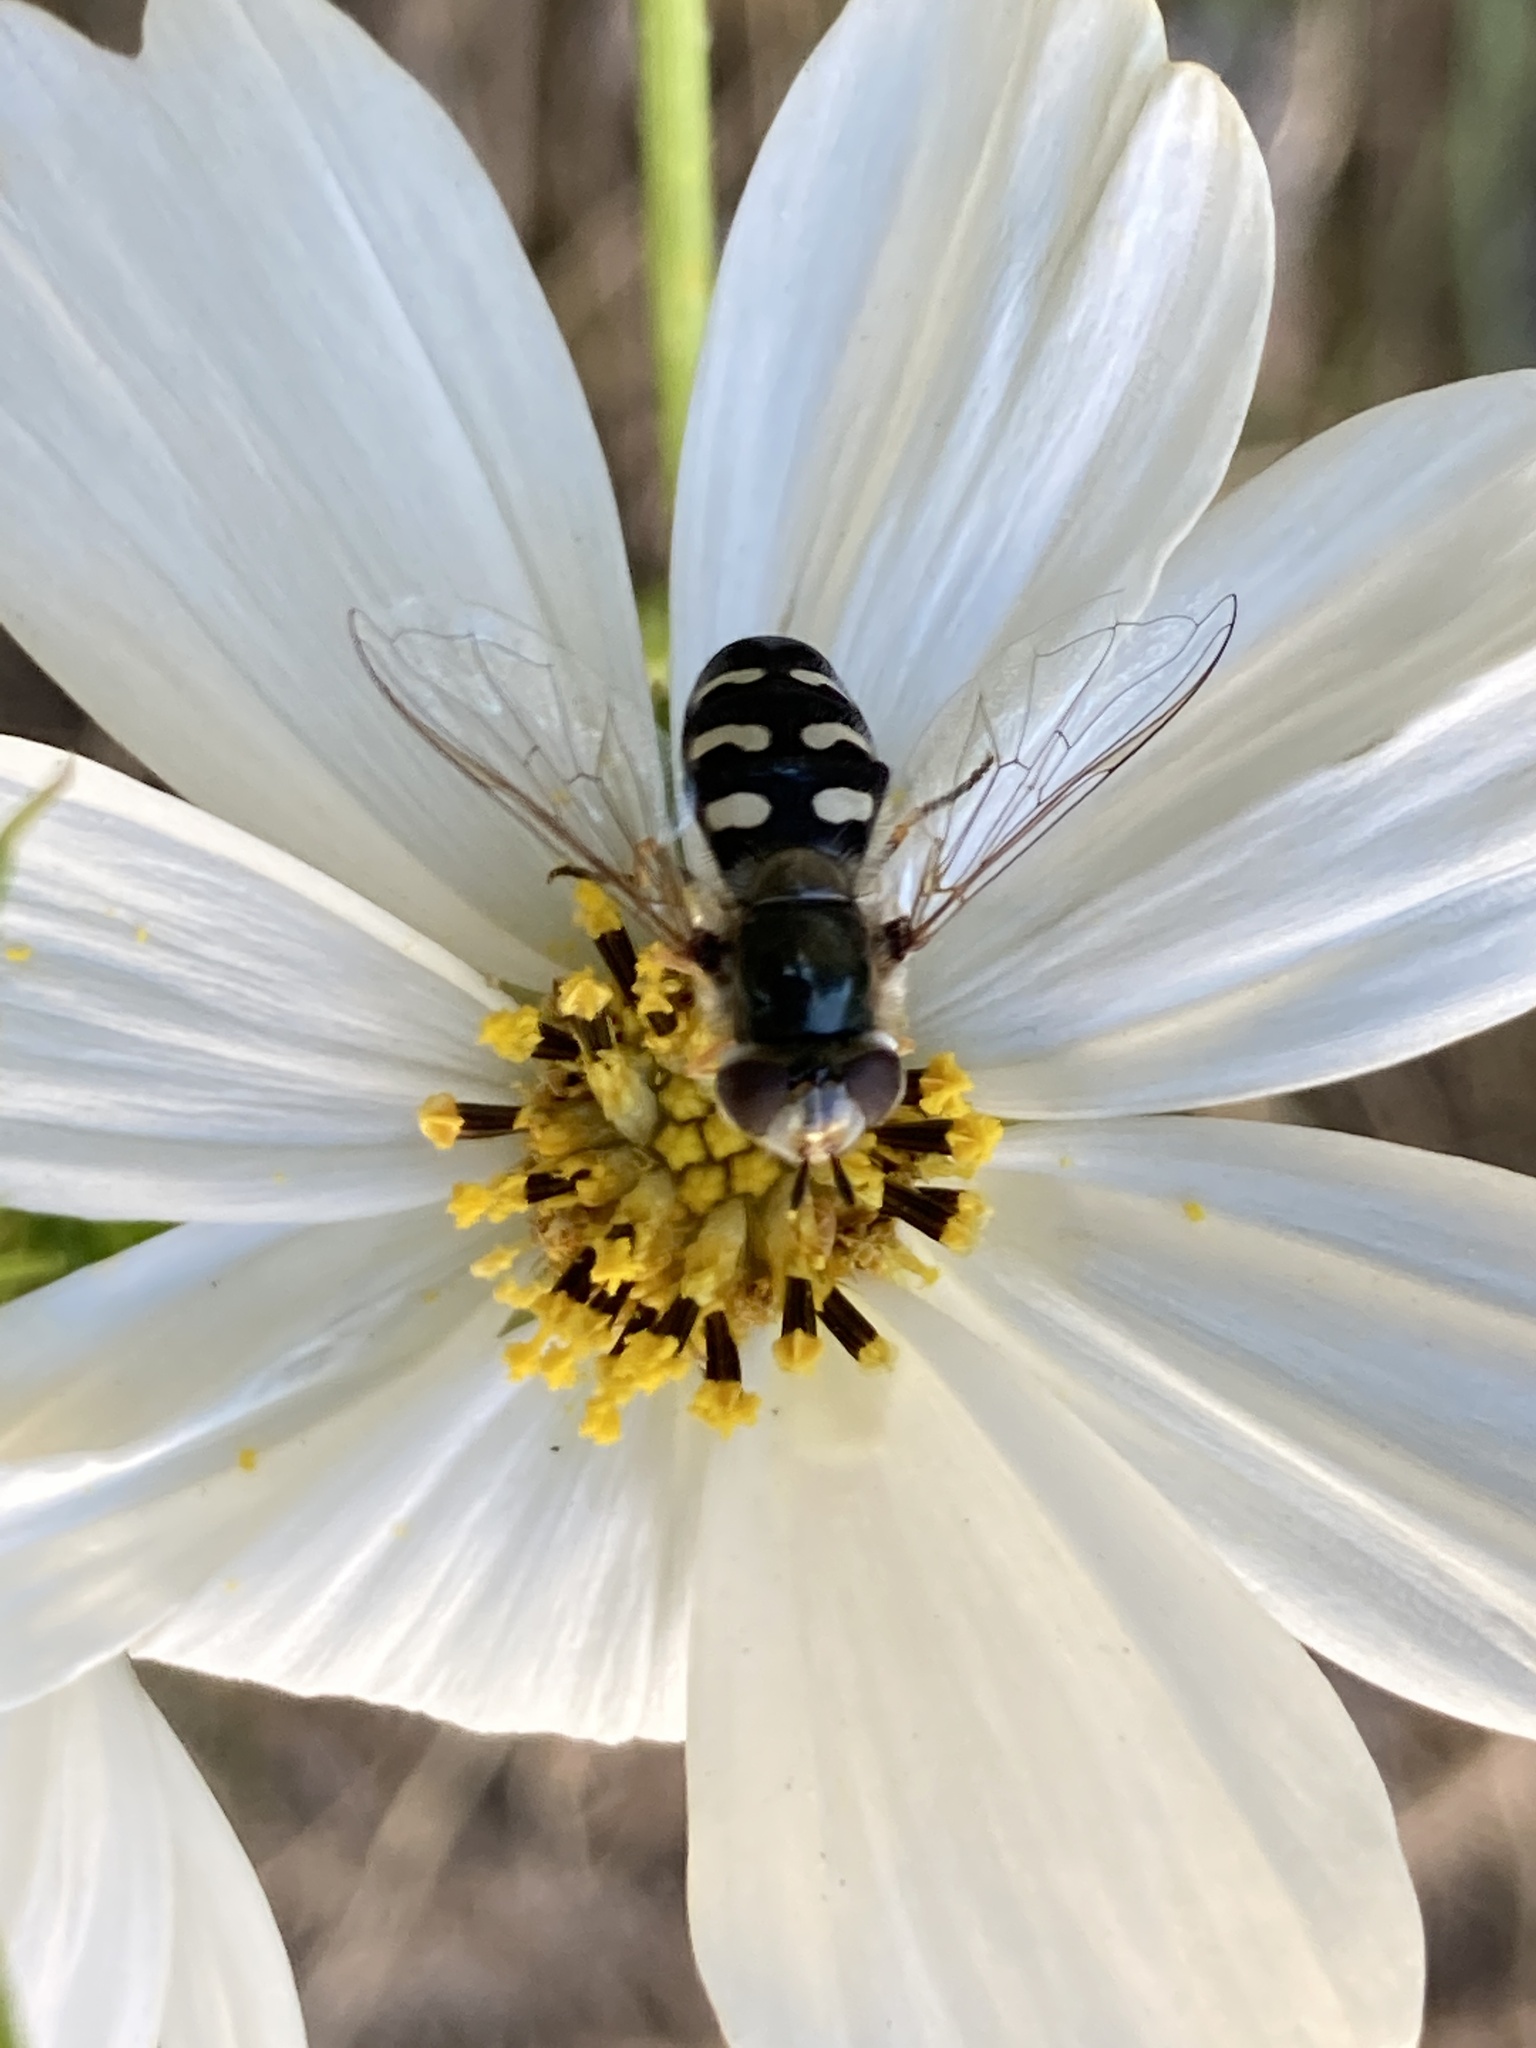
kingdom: Animalia
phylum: Arthropoda
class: Insecta
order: Diptera
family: Syrphidae
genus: Scaeva
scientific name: Scaeva pyrastri
